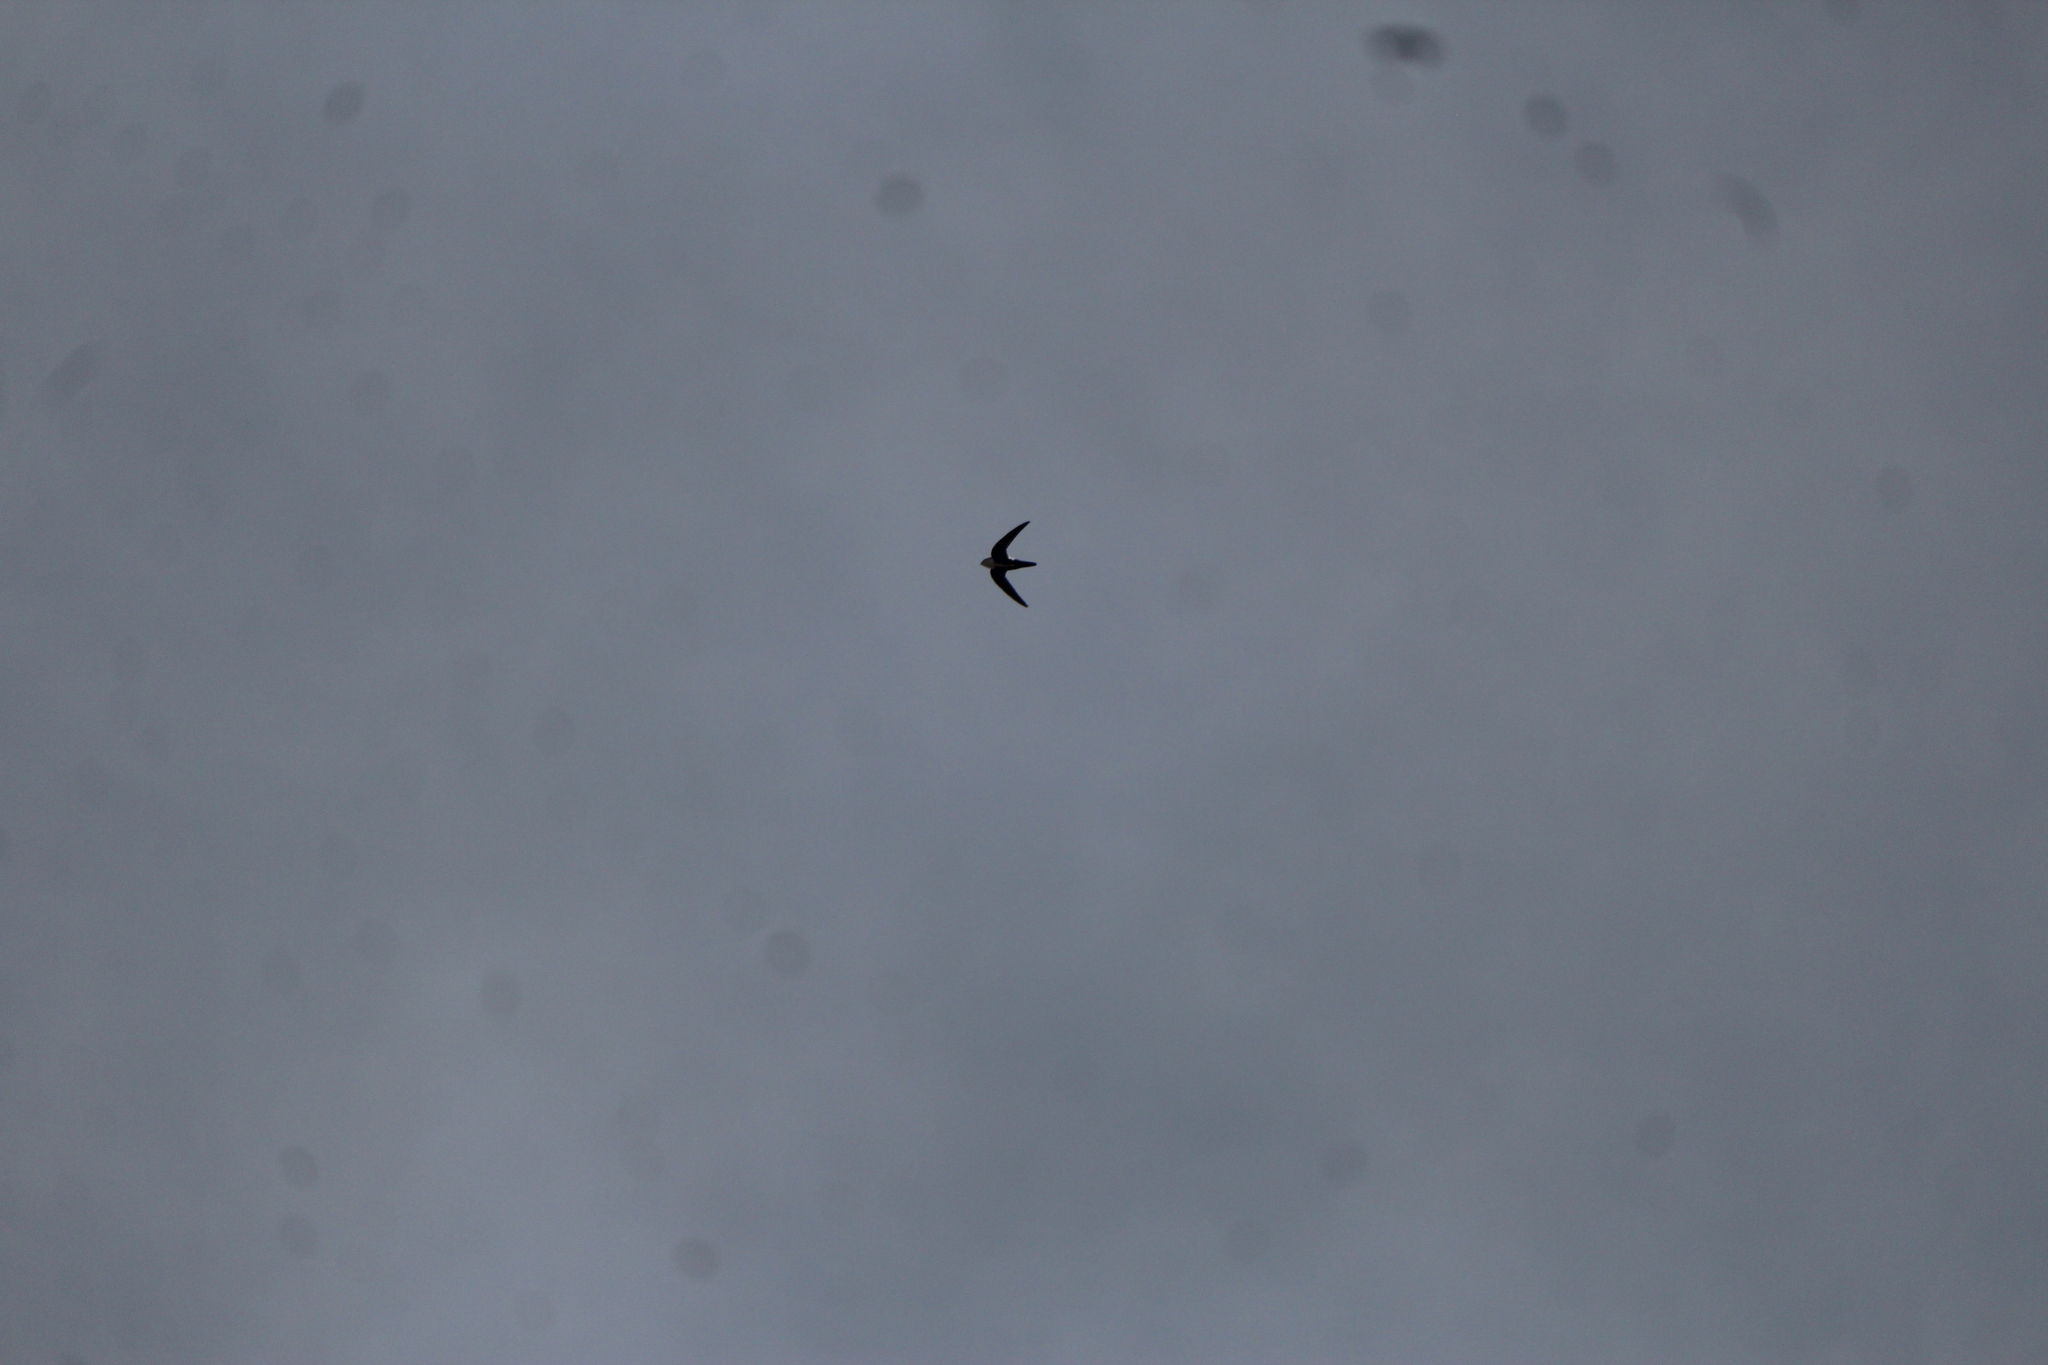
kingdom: Animalia
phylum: Chordata
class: Aves
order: Apodiformes
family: Apodidae
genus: Aeronautes
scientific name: Aeronautes saxatalis
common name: White-throated swift
